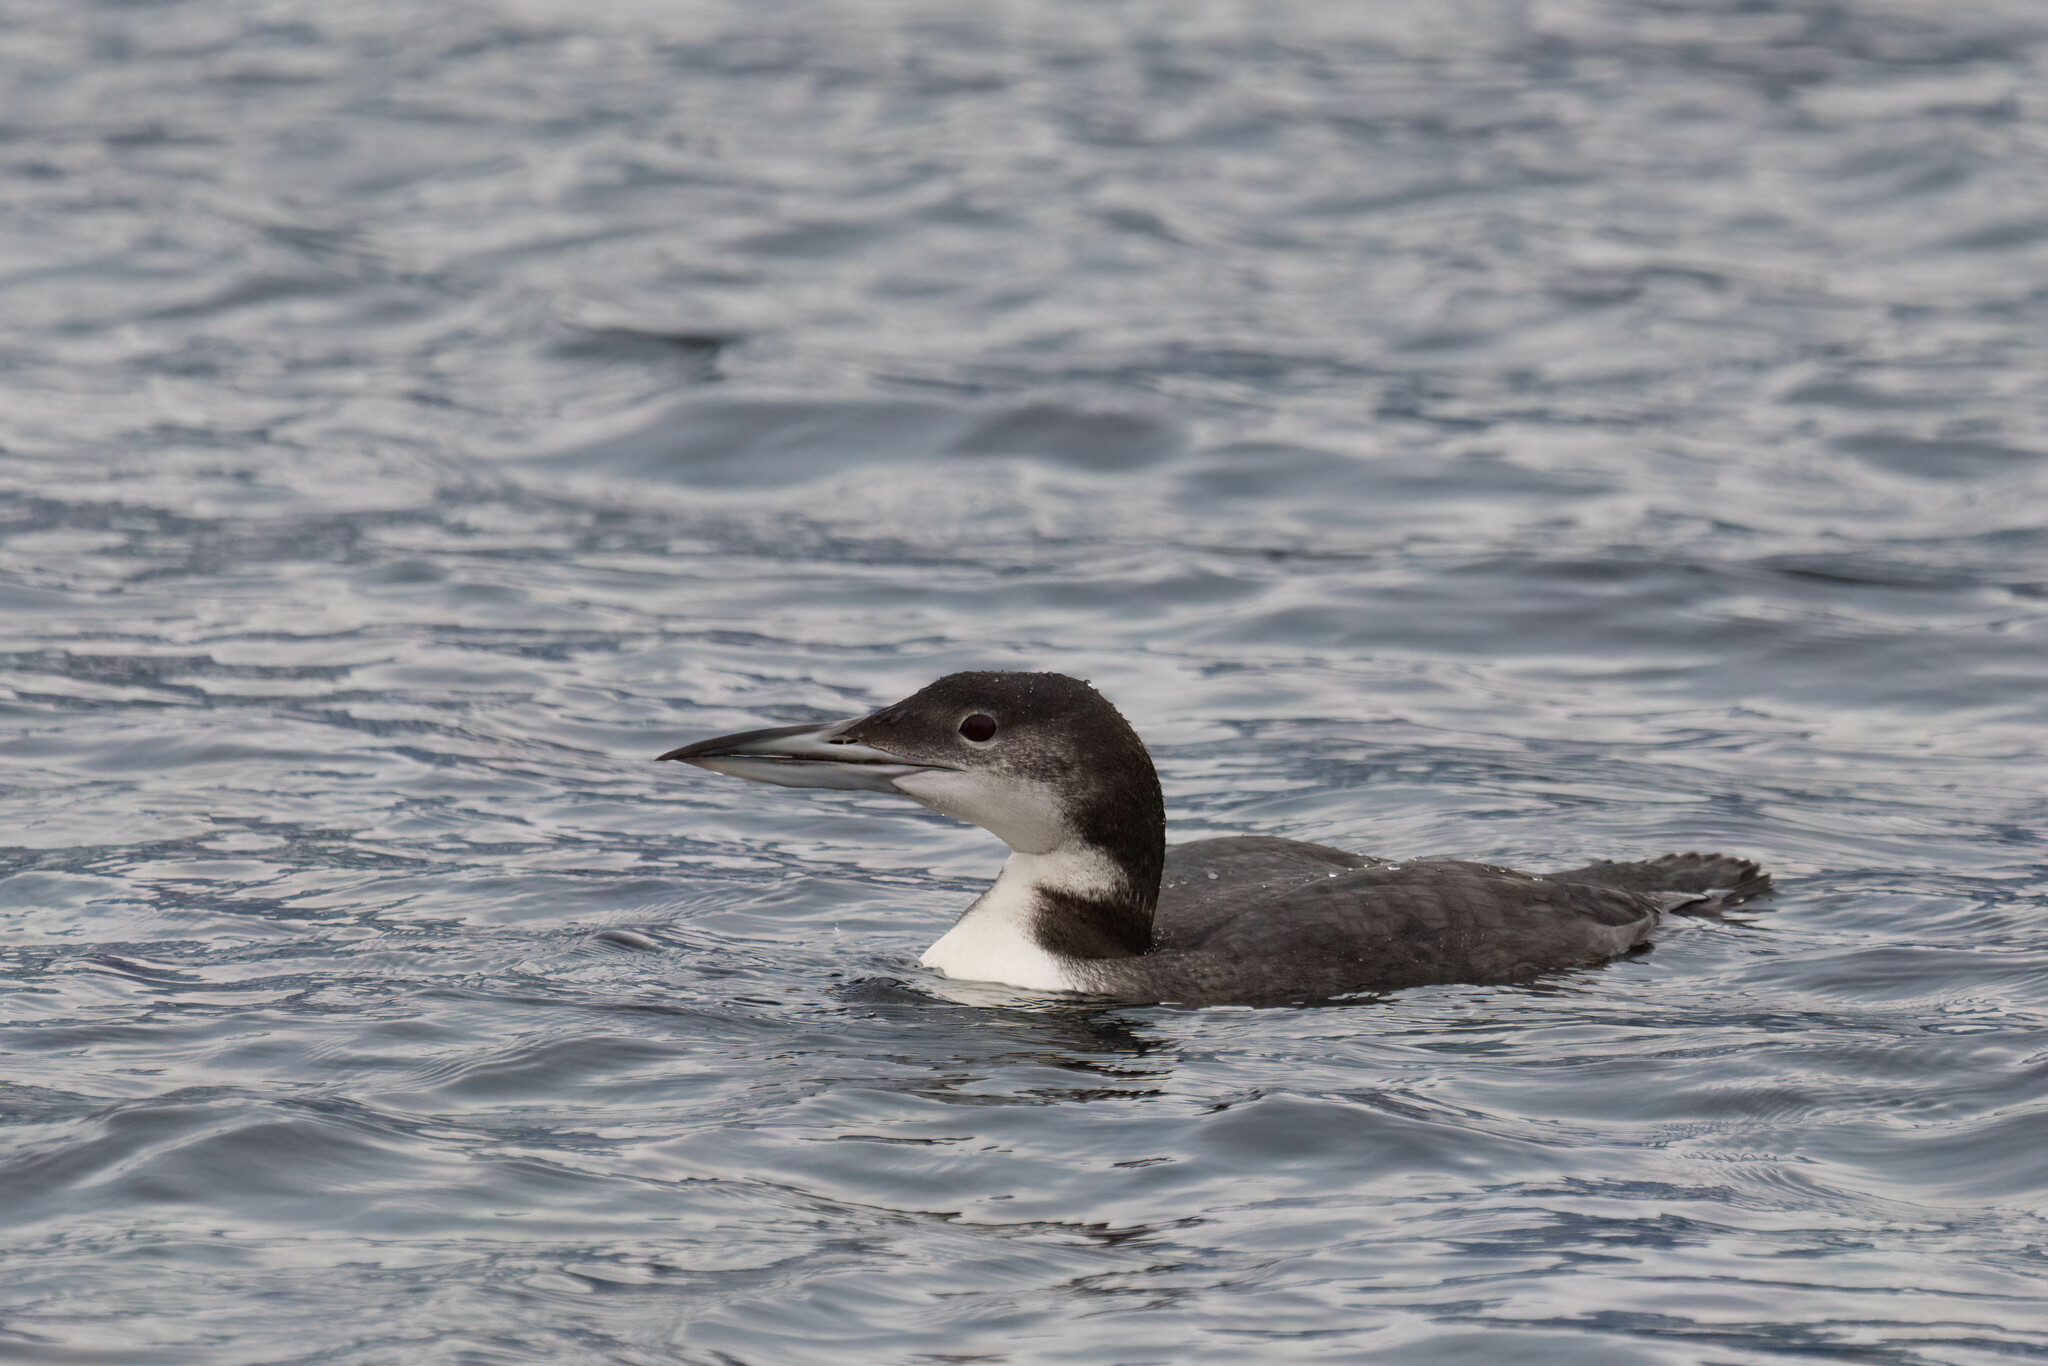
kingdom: Animalia
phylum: Chordata
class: Aves
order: Gaviiformes
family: Gaviidae
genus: Gavia
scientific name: Gavia immer
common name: Common loon
